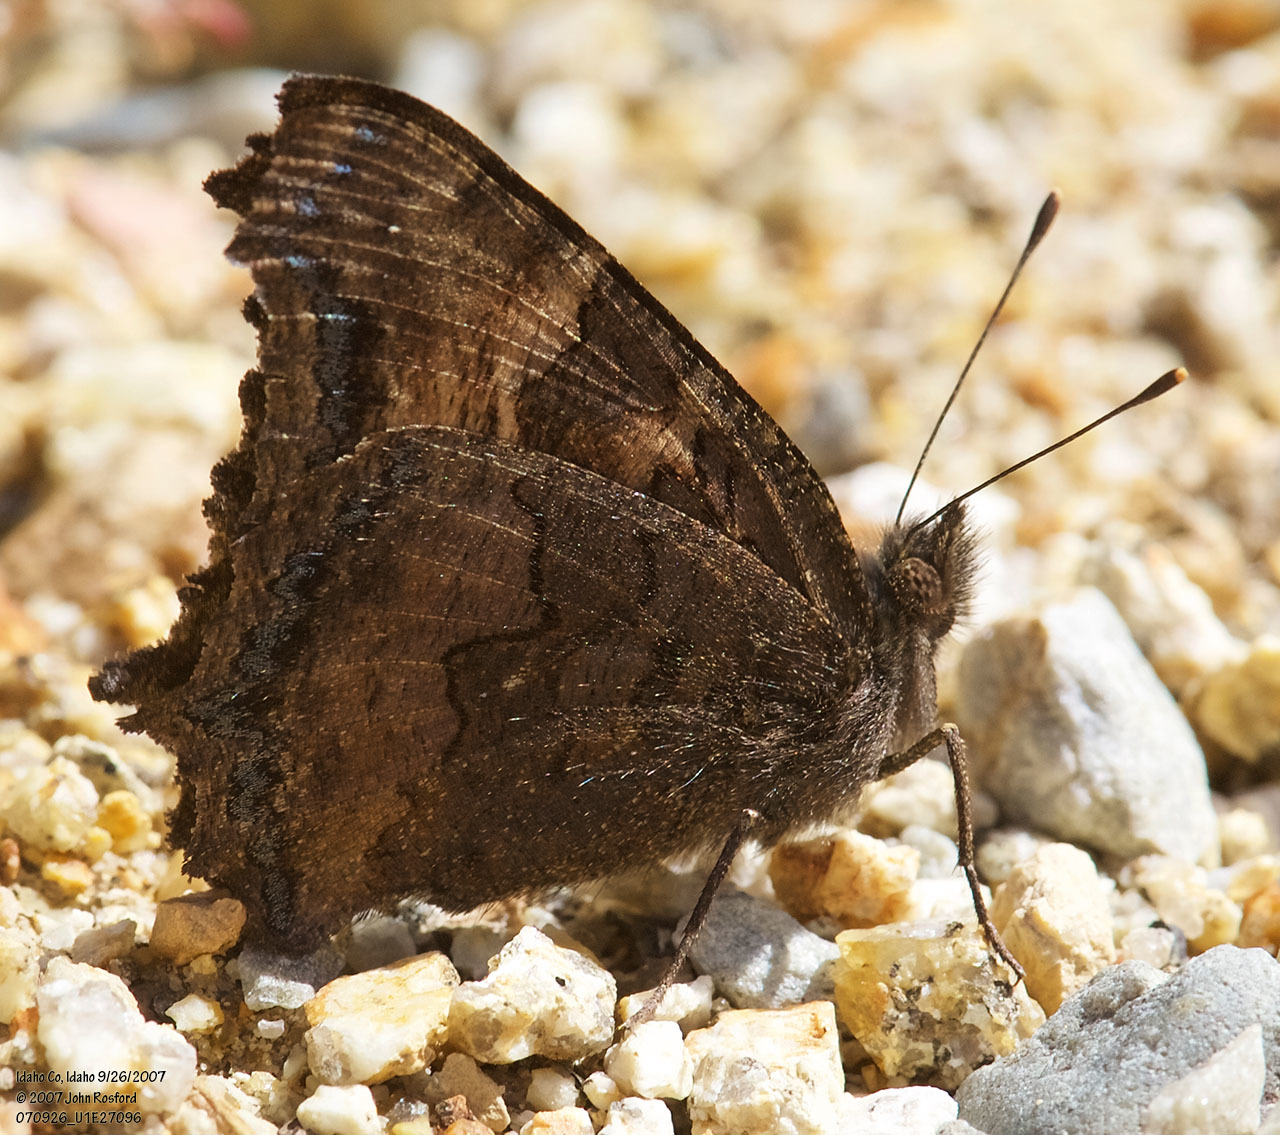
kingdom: Animalia
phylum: Arthropoda
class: Insecta
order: Lepidoptera
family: Nymphalidae
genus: Nymphalis
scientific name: Nymphalis californica
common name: California tortoiseshell
